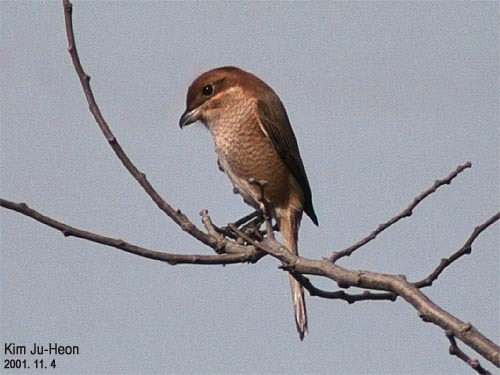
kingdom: Animalia
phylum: Chordata
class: Aves
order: Passeriformes
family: Laniidae
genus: Lanius
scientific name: Lanius bucephalus
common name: Bull-headed shrike
